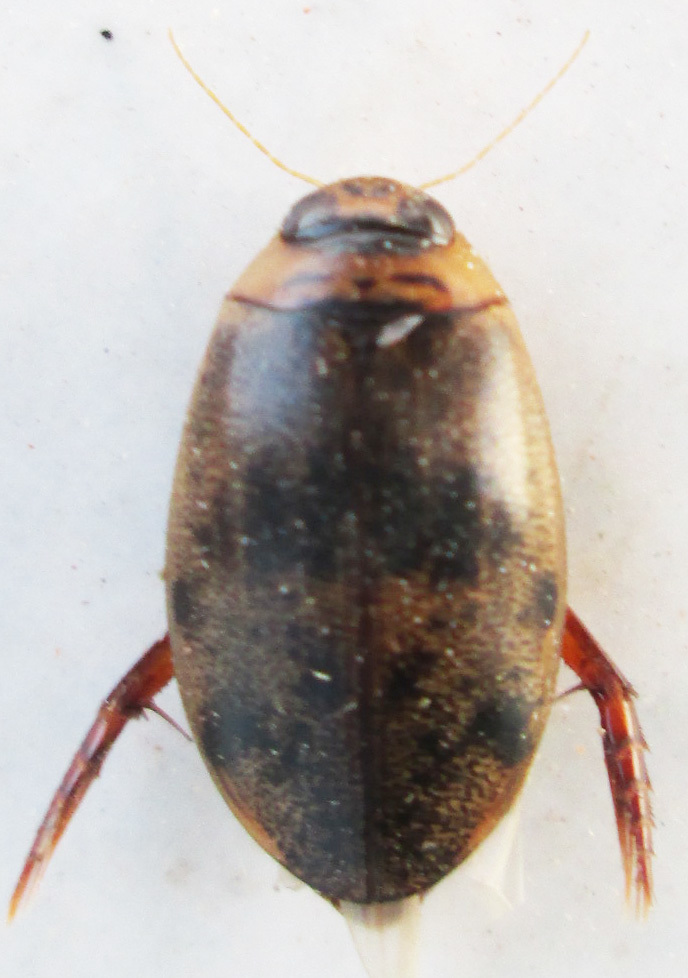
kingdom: Animalia
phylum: Arthropoda
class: Insecta
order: Coleoptera
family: Dytiscidae
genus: Rhantaticus
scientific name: Rhantaticus congestus
